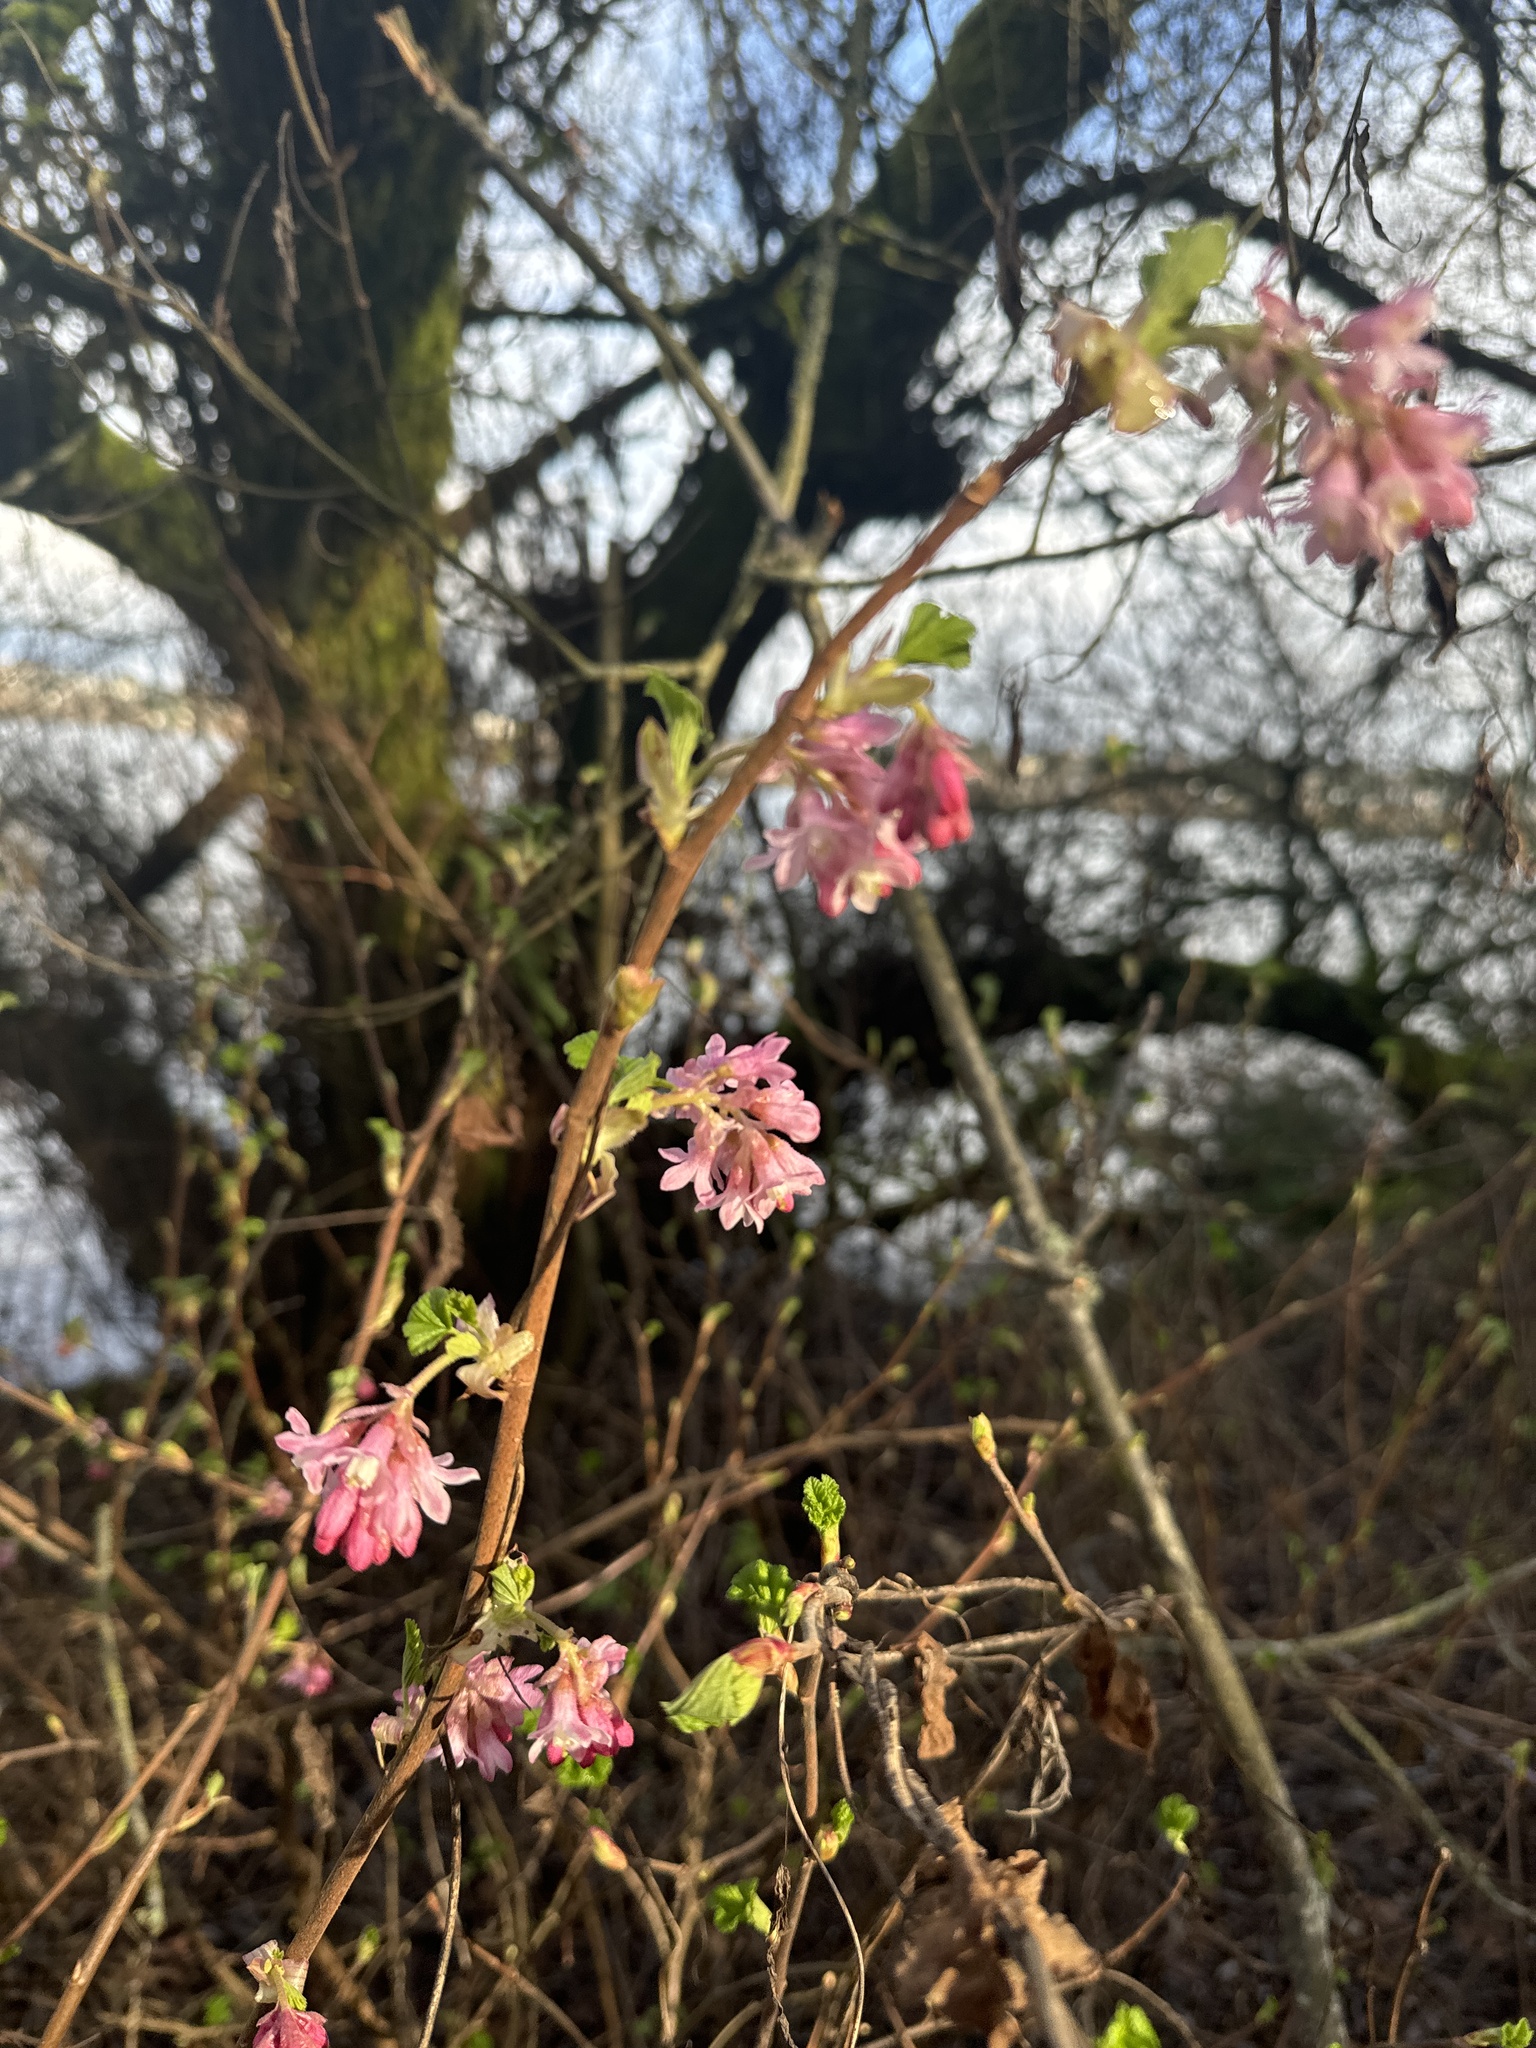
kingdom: Plantae
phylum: Tracheophyta
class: Magnoliopsida
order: Saxifragales
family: Grossulariaceae
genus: Ribes
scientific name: Ribes sanguineum
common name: Flowering currant
